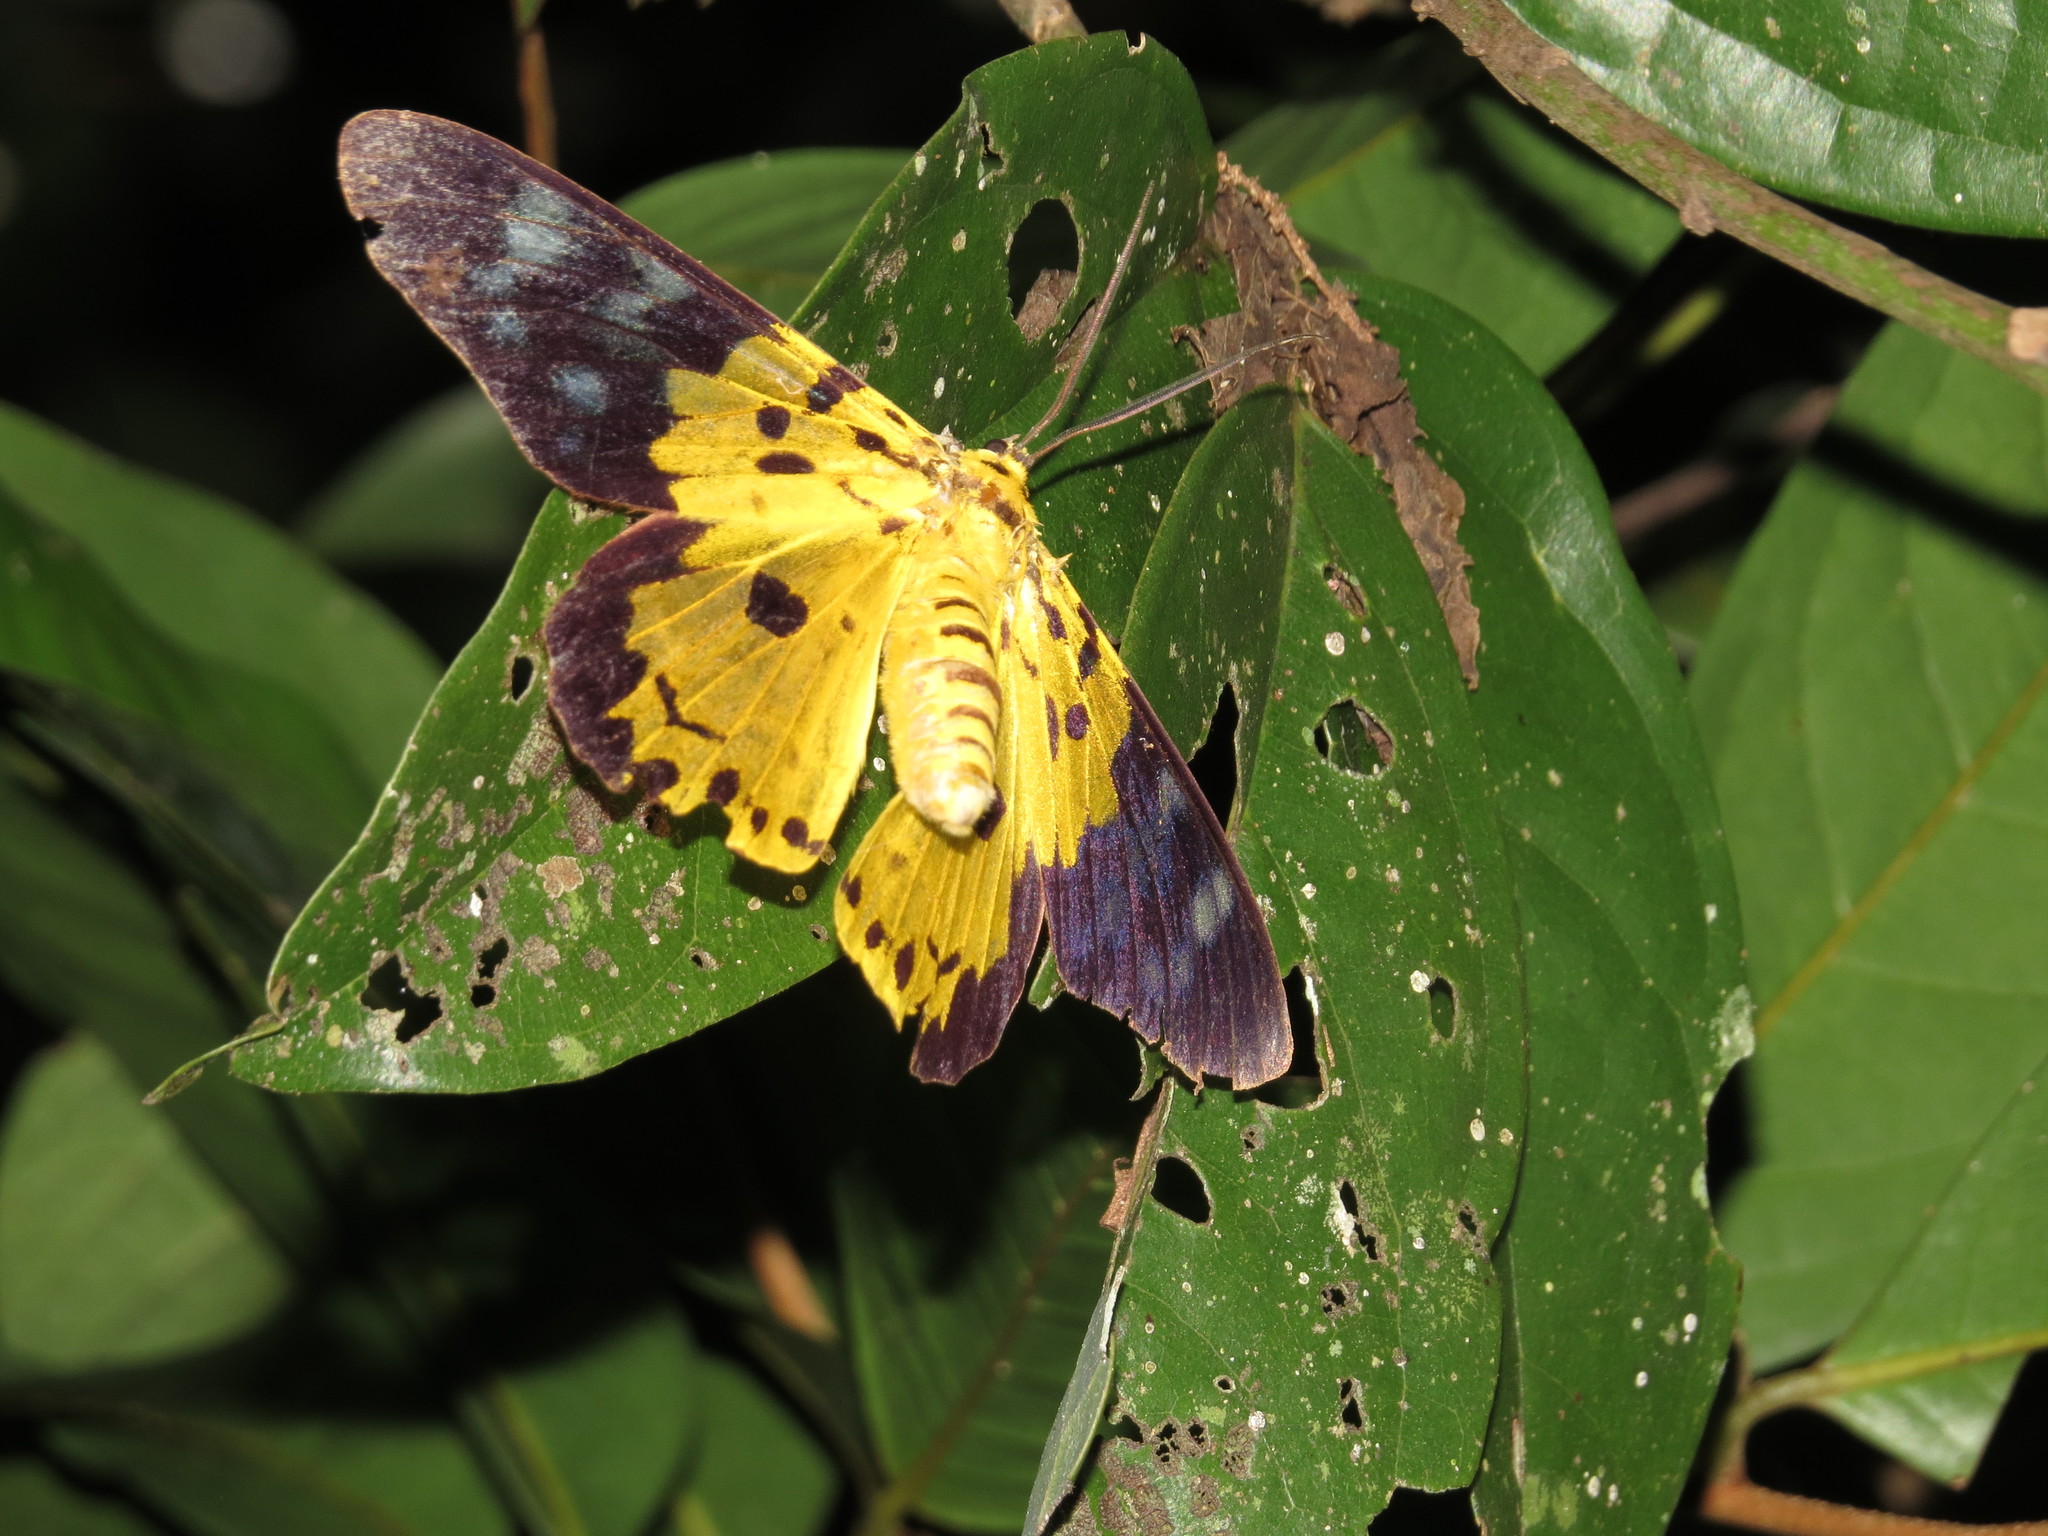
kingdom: Animalia
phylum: Arthropoda
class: Insecta
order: Lepidoptera
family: Geometridae
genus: Dysphania
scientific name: Dysphania militaris
